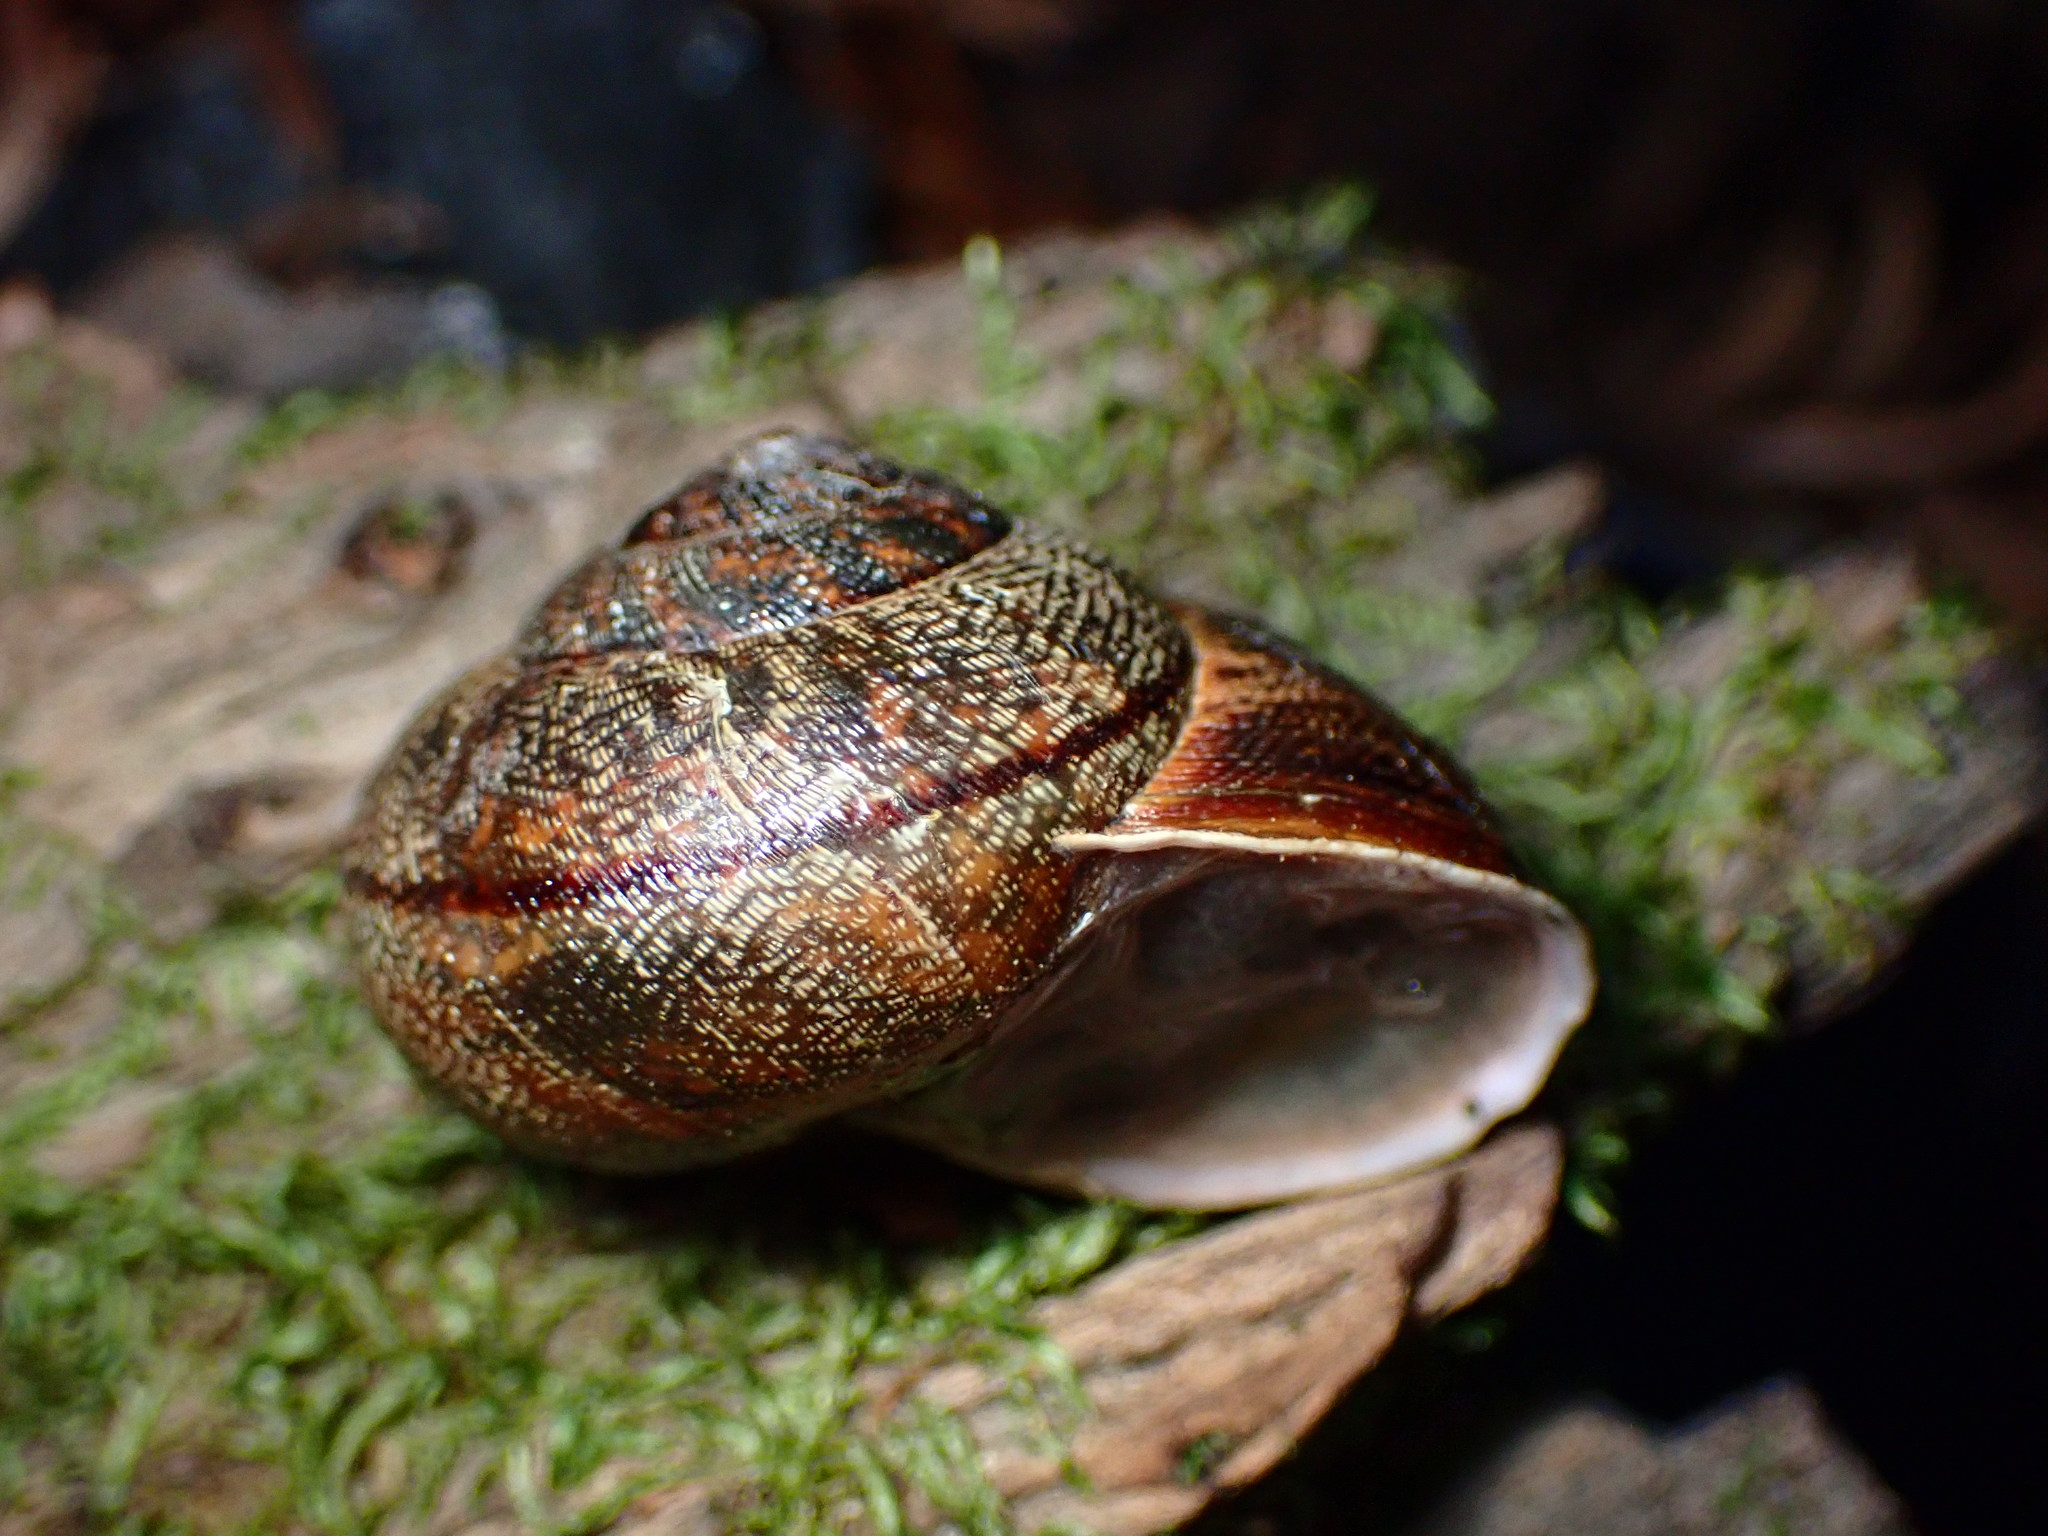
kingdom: Animalia
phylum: Mollusca
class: Gastropoda
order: Stylommatophora
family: Xanthonychidae
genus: Helminthoglypta
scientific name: Helminthoglypta nickliniana
